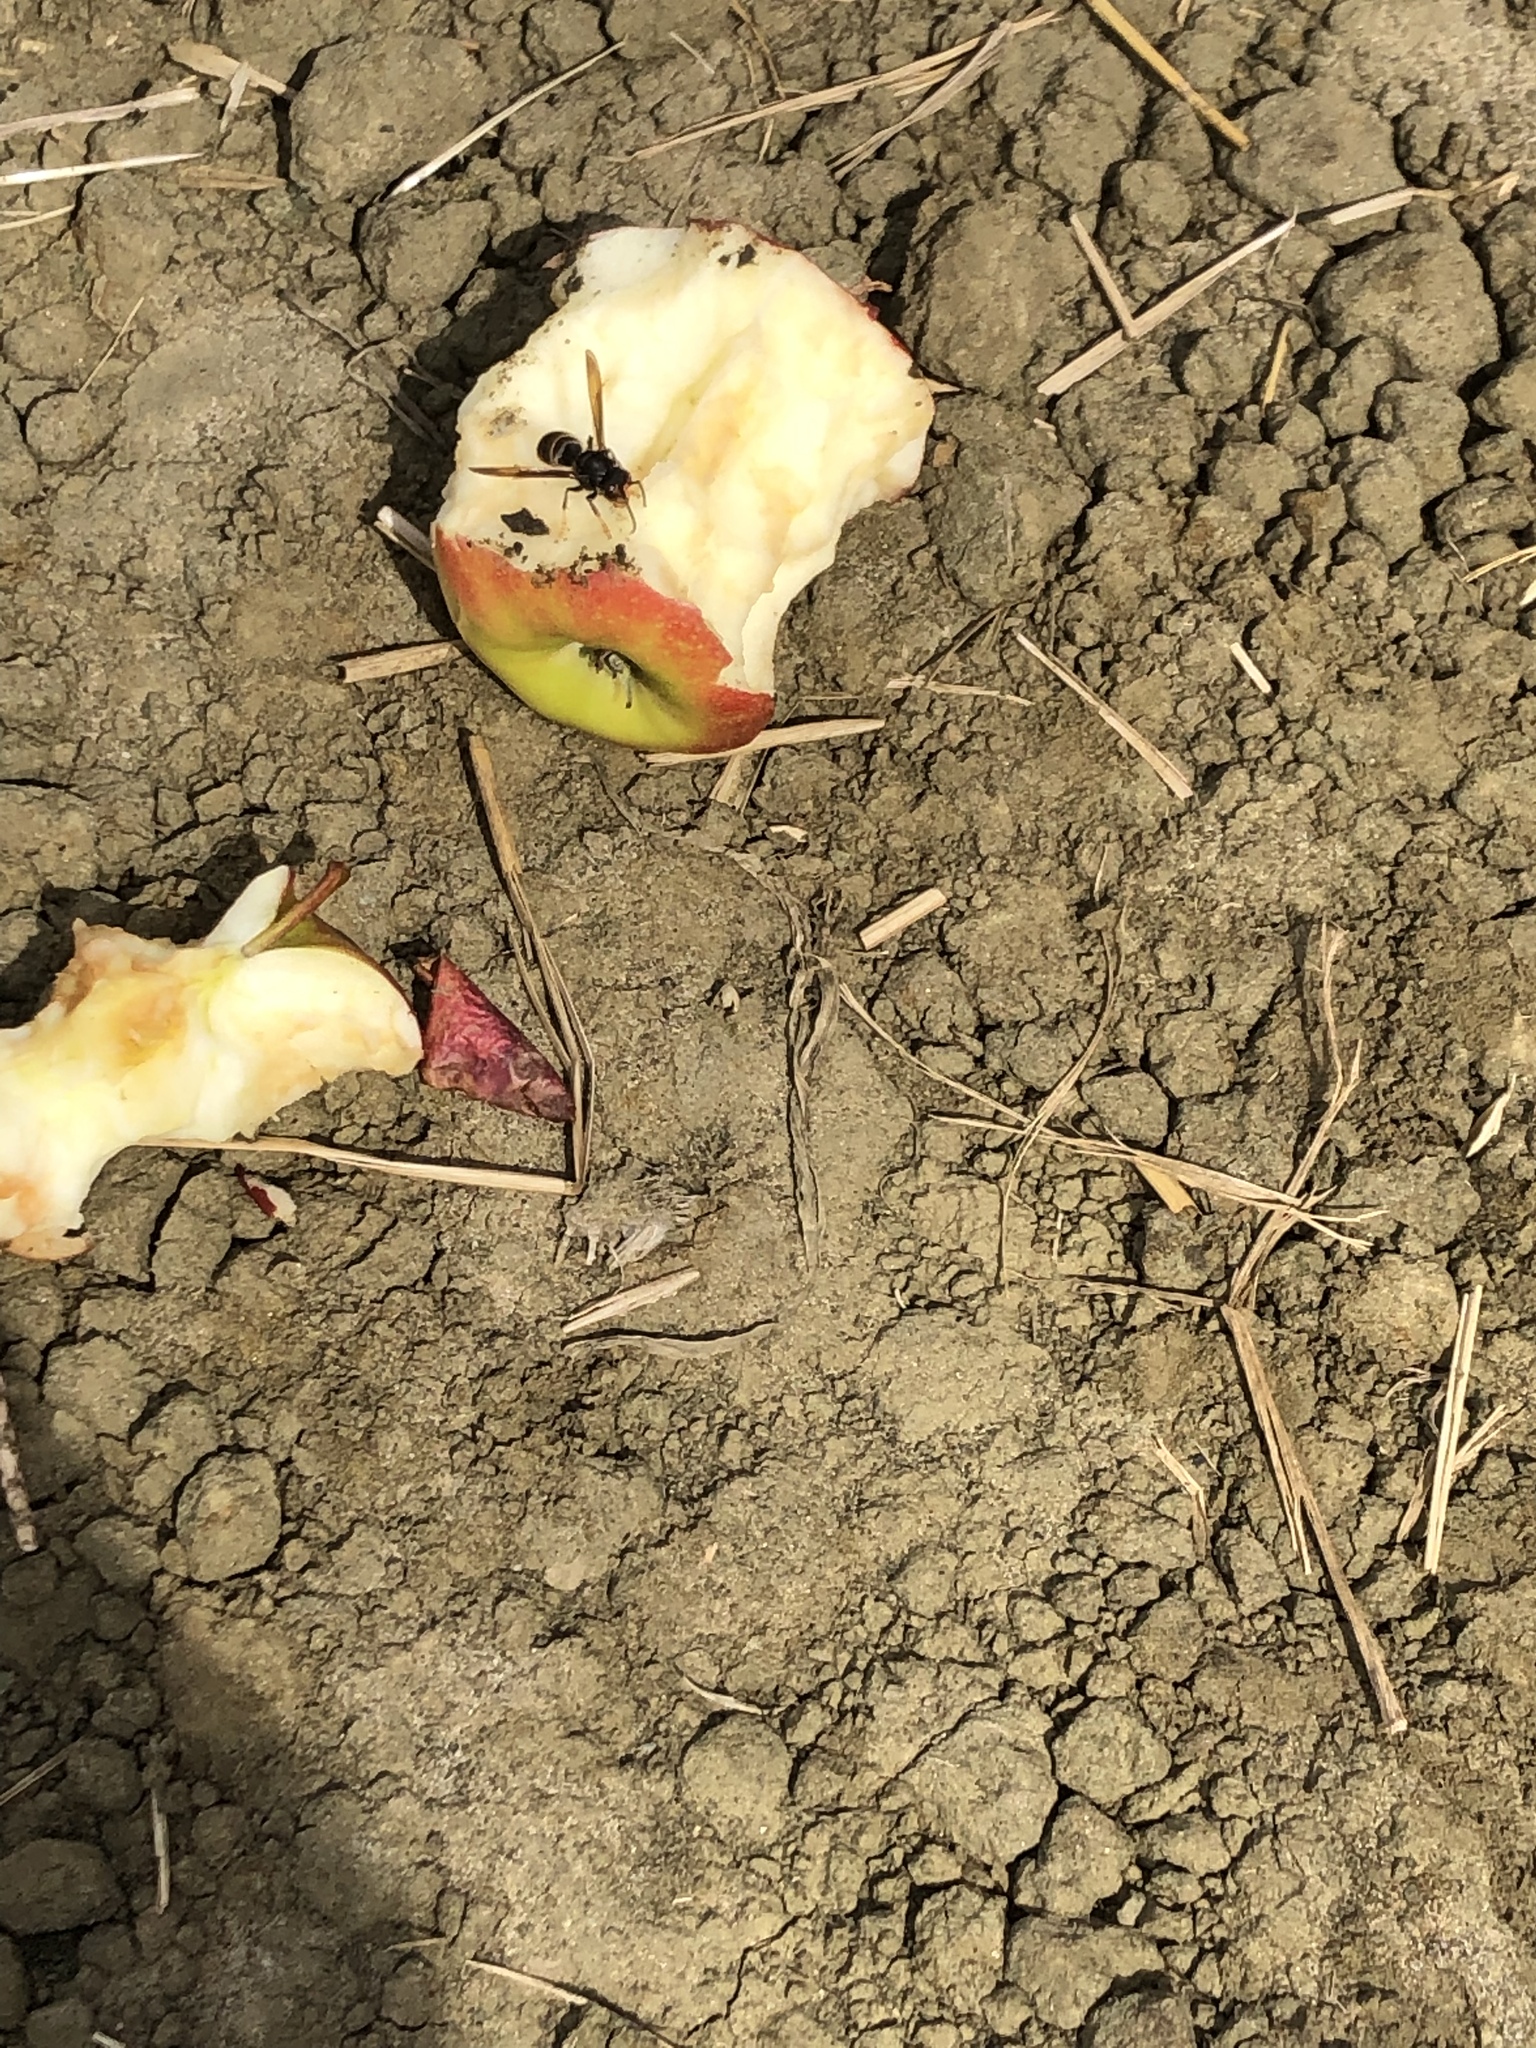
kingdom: Animalia
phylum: Arthropoda
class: Insecta
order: Hymenoptera
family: Vespidae
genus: Vespa
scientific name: Vespa velutina
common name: Asian hornet
